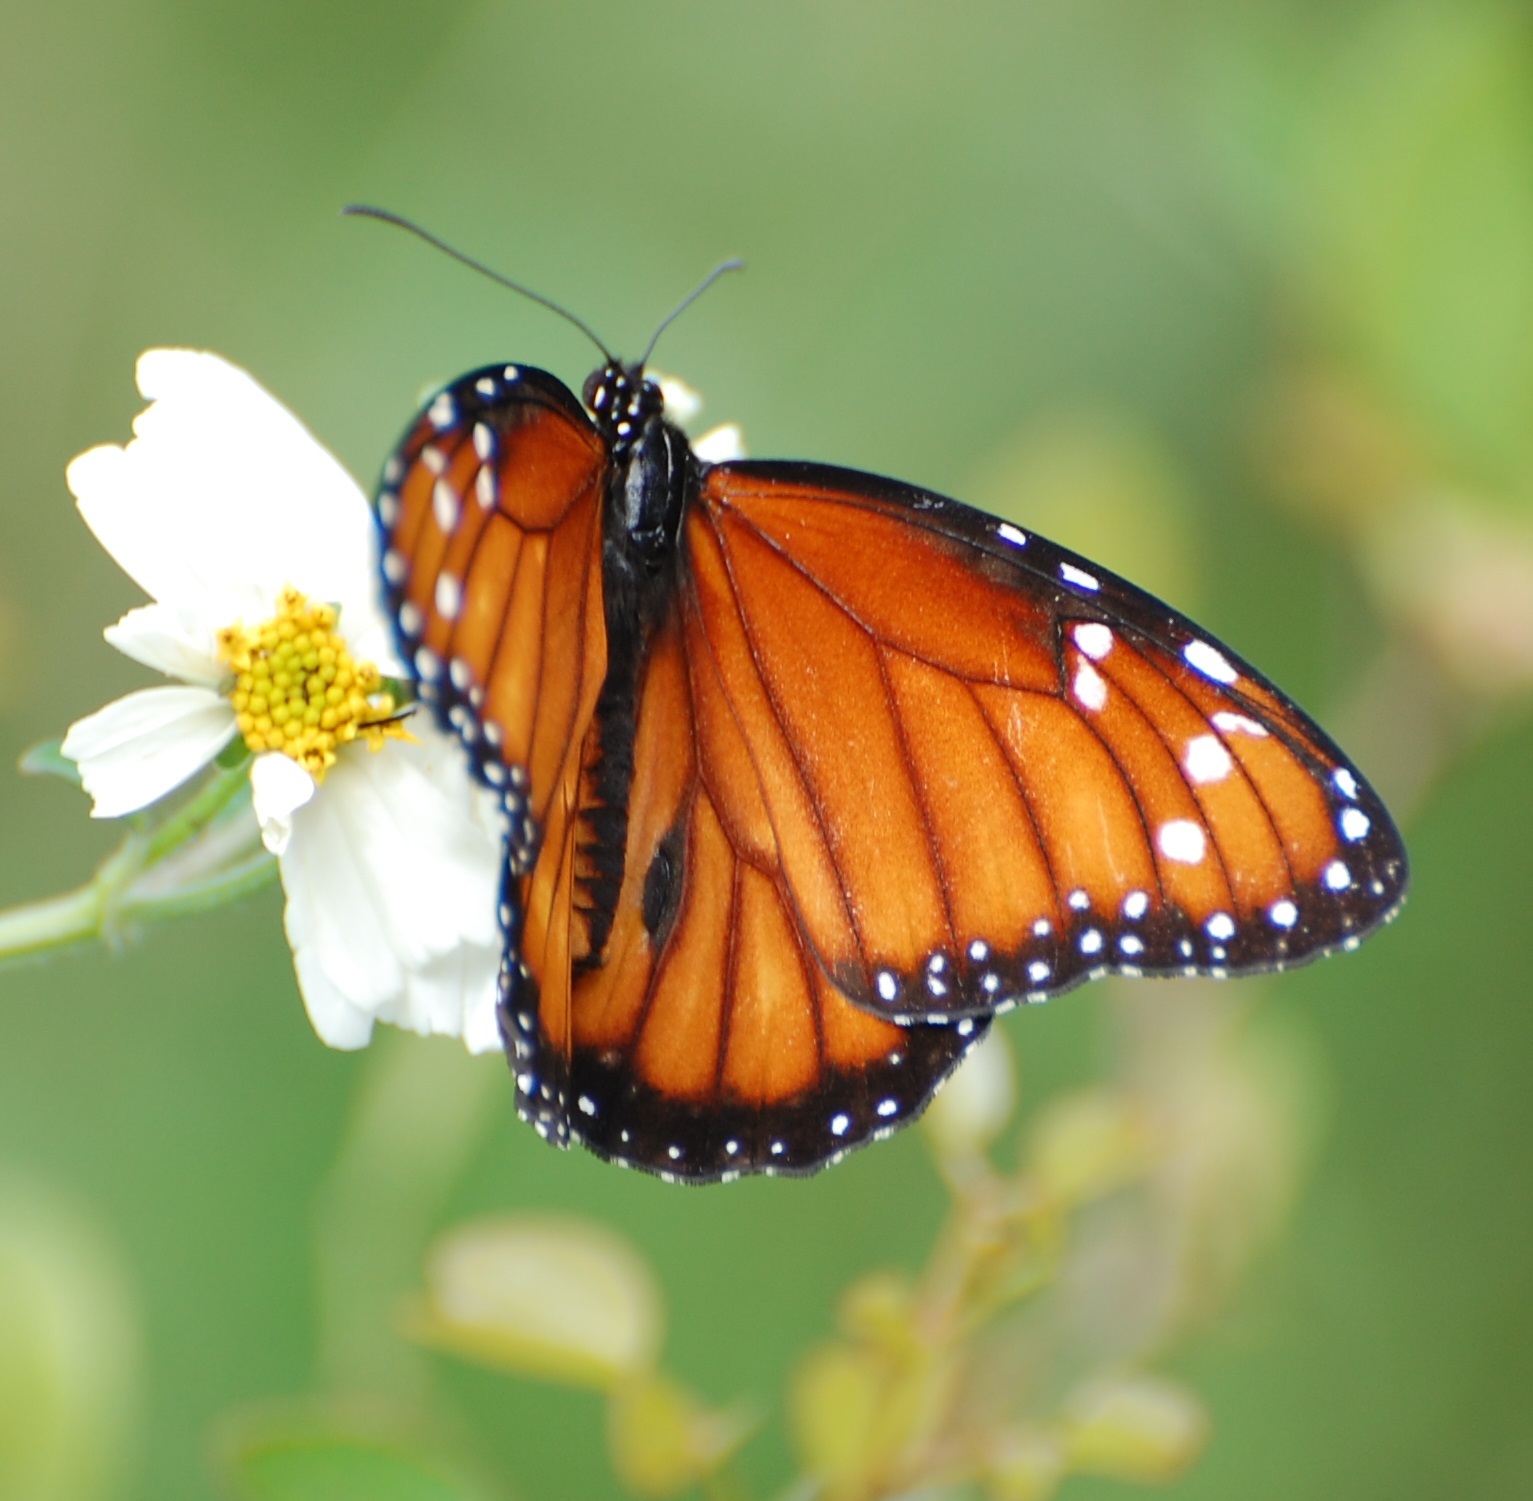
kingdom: Animalia
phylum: Arthropoda
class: Insecta
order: Lepidoptera
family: Nymphalidae
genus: Danaus
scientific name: Danaus eresimus
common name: Soldier
